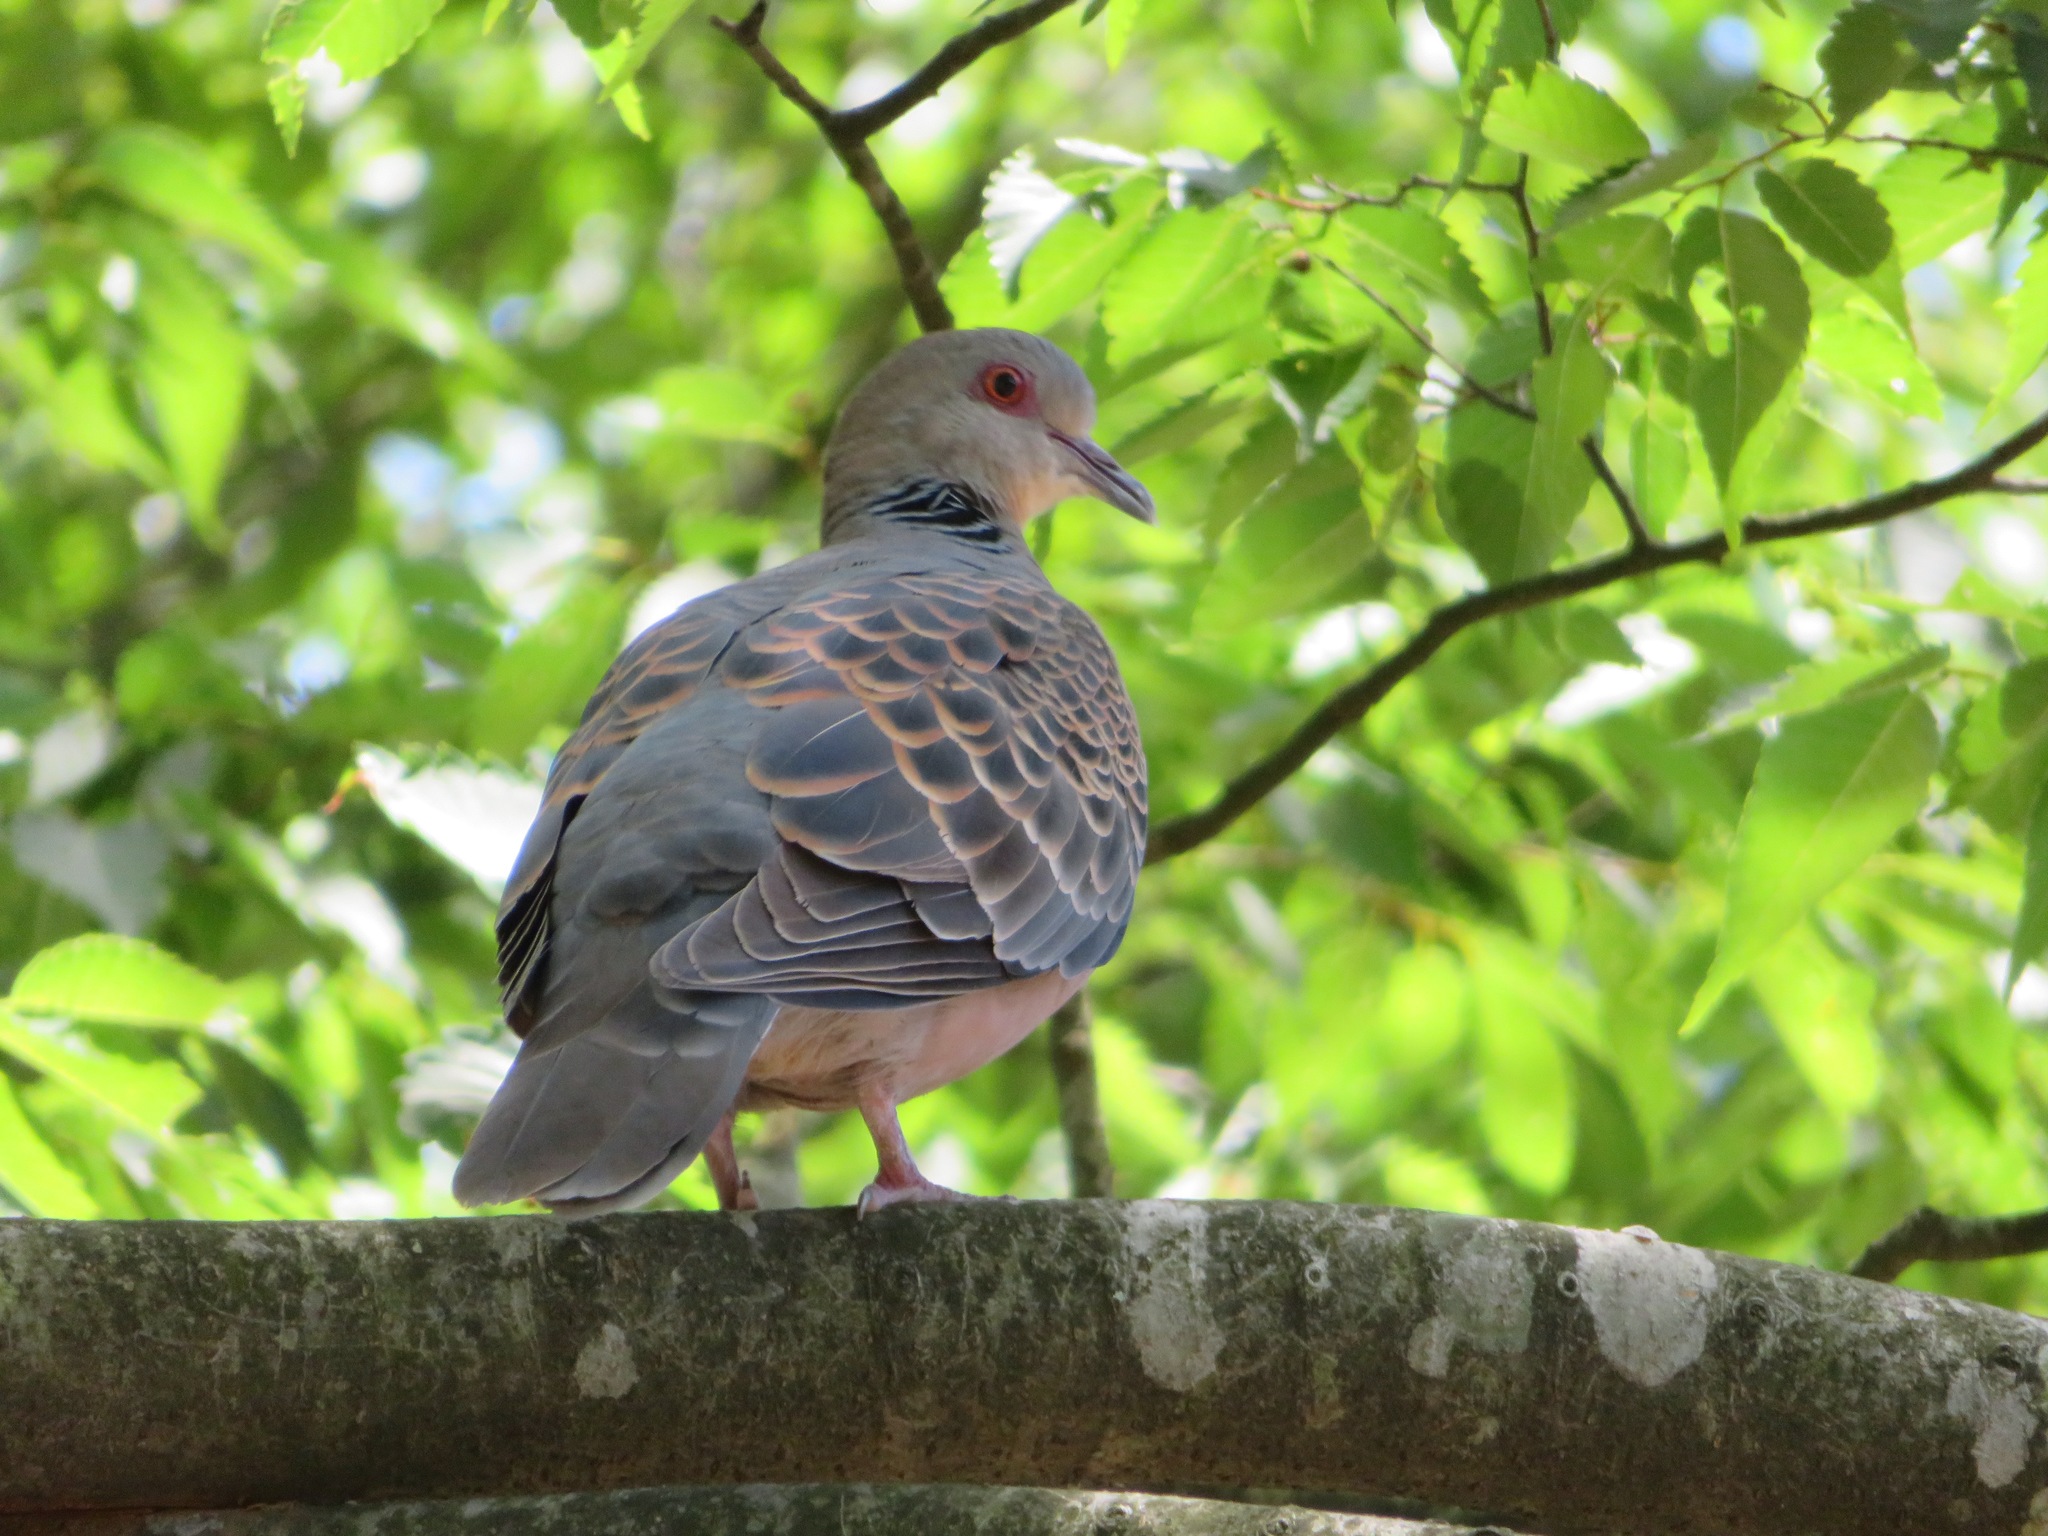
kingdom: Animalia
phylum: Chordata
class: Aves
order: Columbiformes
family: Columbidae
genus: Streptopelia
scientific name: Streptopelia orientalis
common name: Oriental turtle dove
